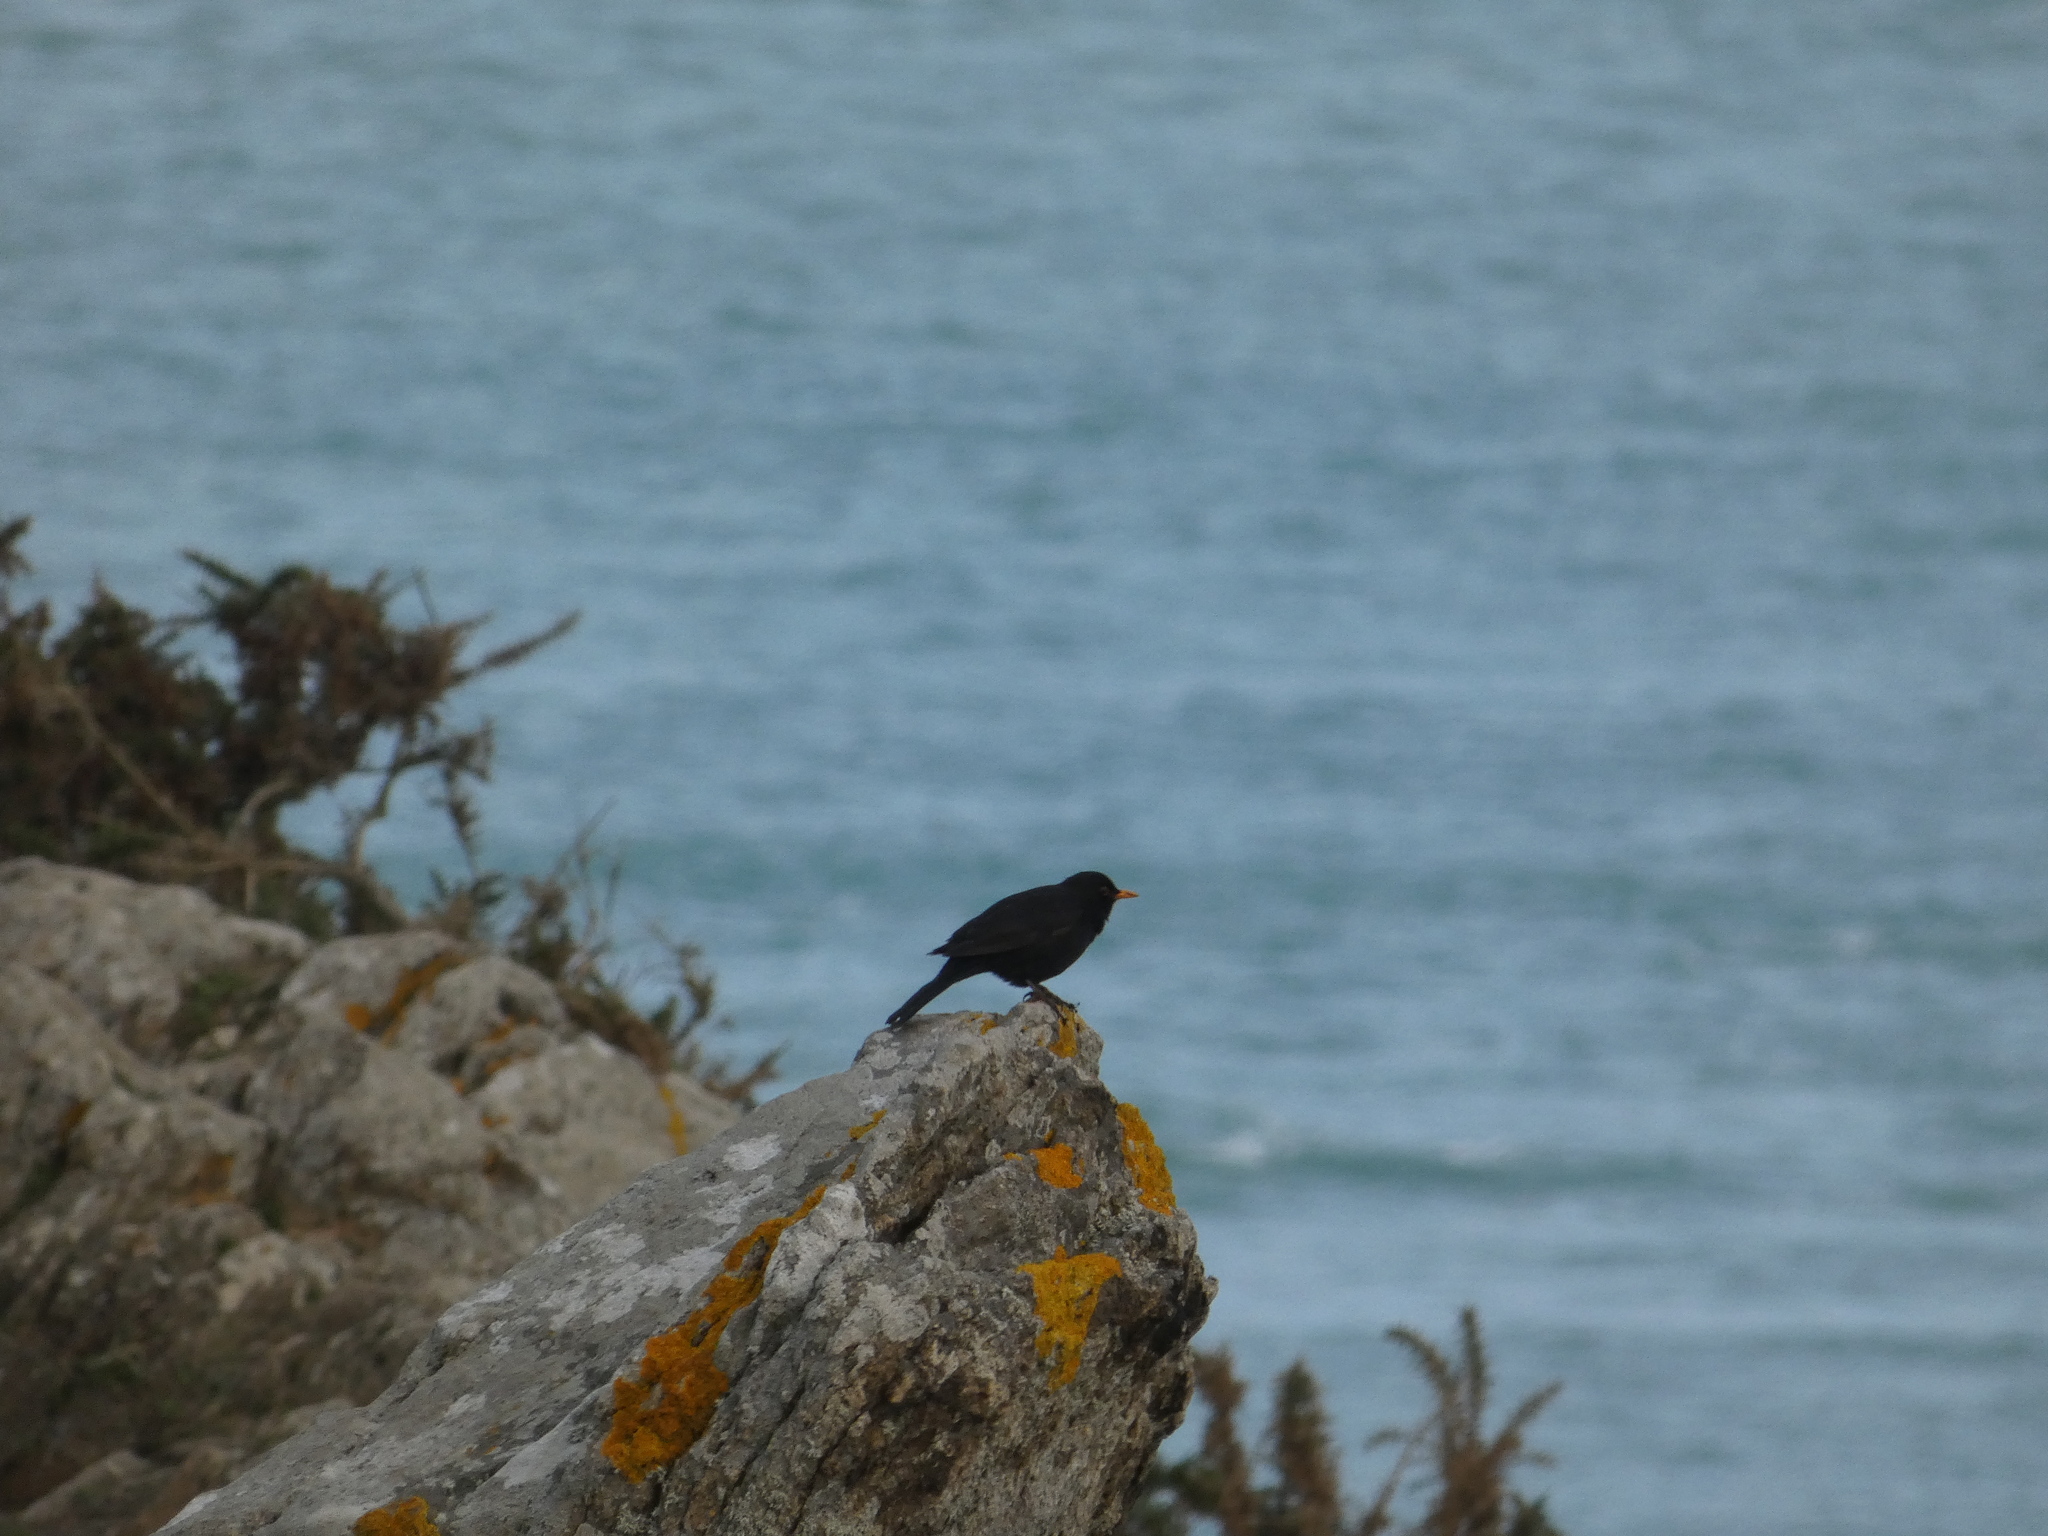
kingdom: Animalia
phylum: Chordata
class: Aves
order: Passeriformes
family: Turdidae
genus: Turdus
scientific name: Turdus merula
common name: Common blackbird
